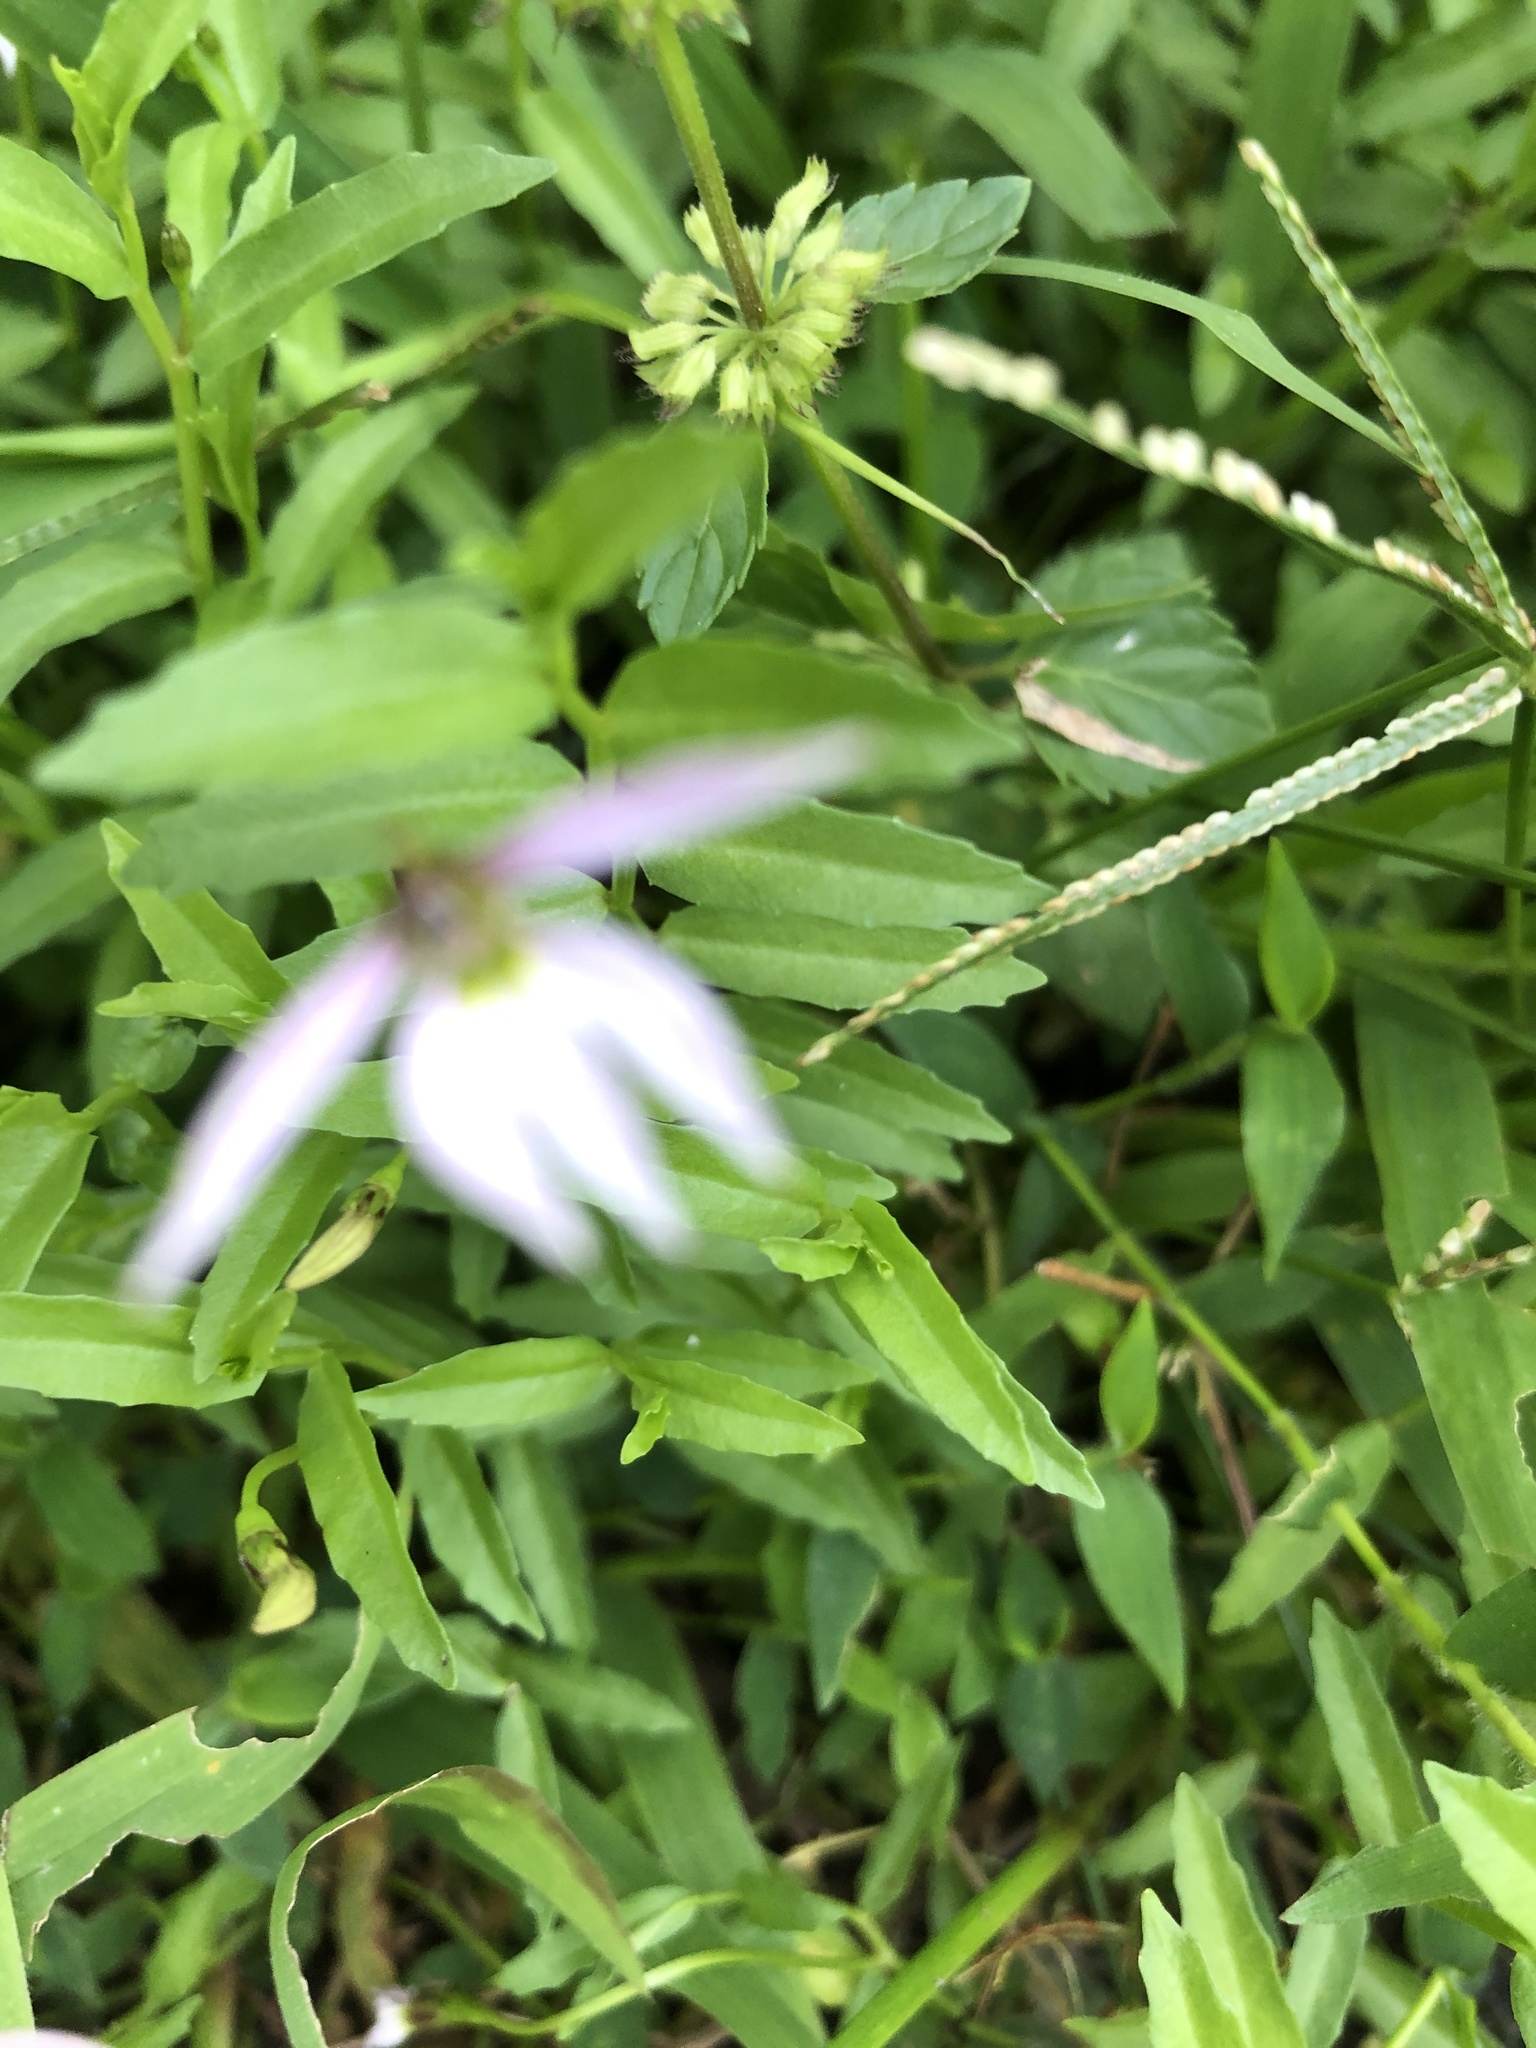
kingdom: Plantae
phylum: Tracheophyta
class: Magnoliopsida
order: Asterales
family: Campanulaceae
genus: Lobelia
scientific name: Lobelia chinensis
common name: Chinese lobelia
